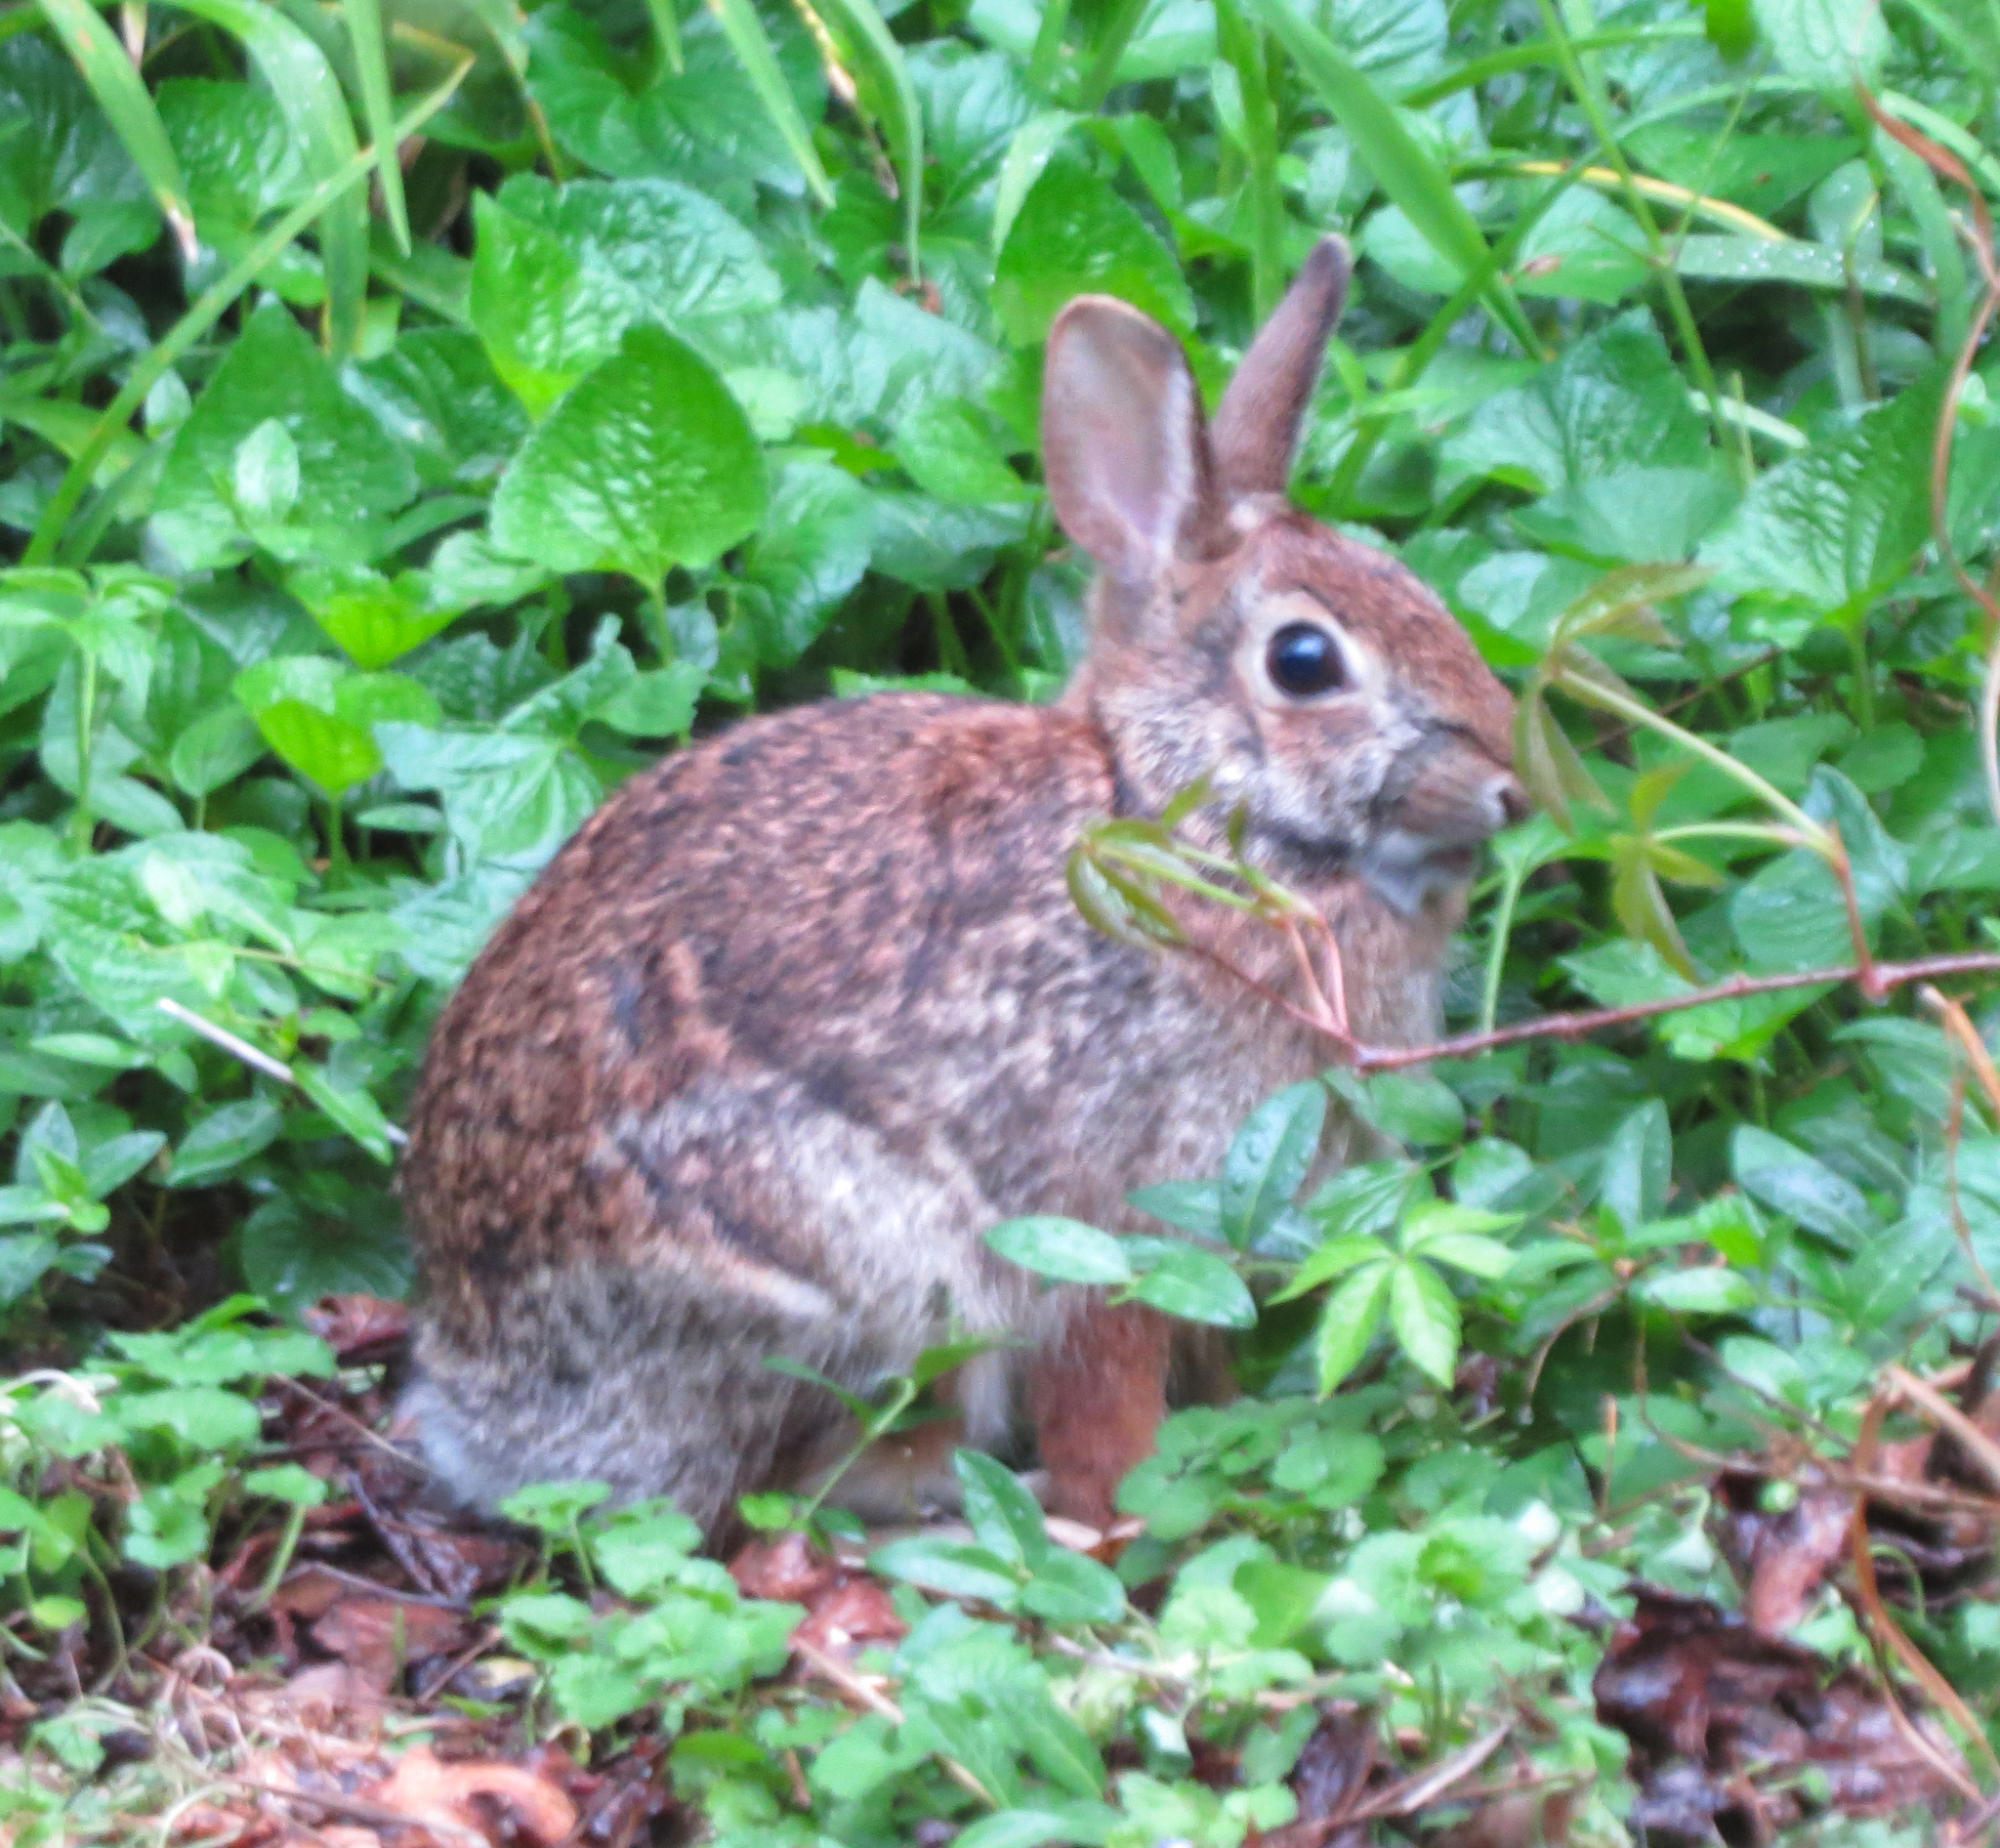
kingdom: Animalia
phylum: Chordata
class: Mammalia
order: Lagomorpha
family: Leporidae
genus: Sylvilagus
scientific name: Sylvilagus floridanus
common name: Eastern cottontail
